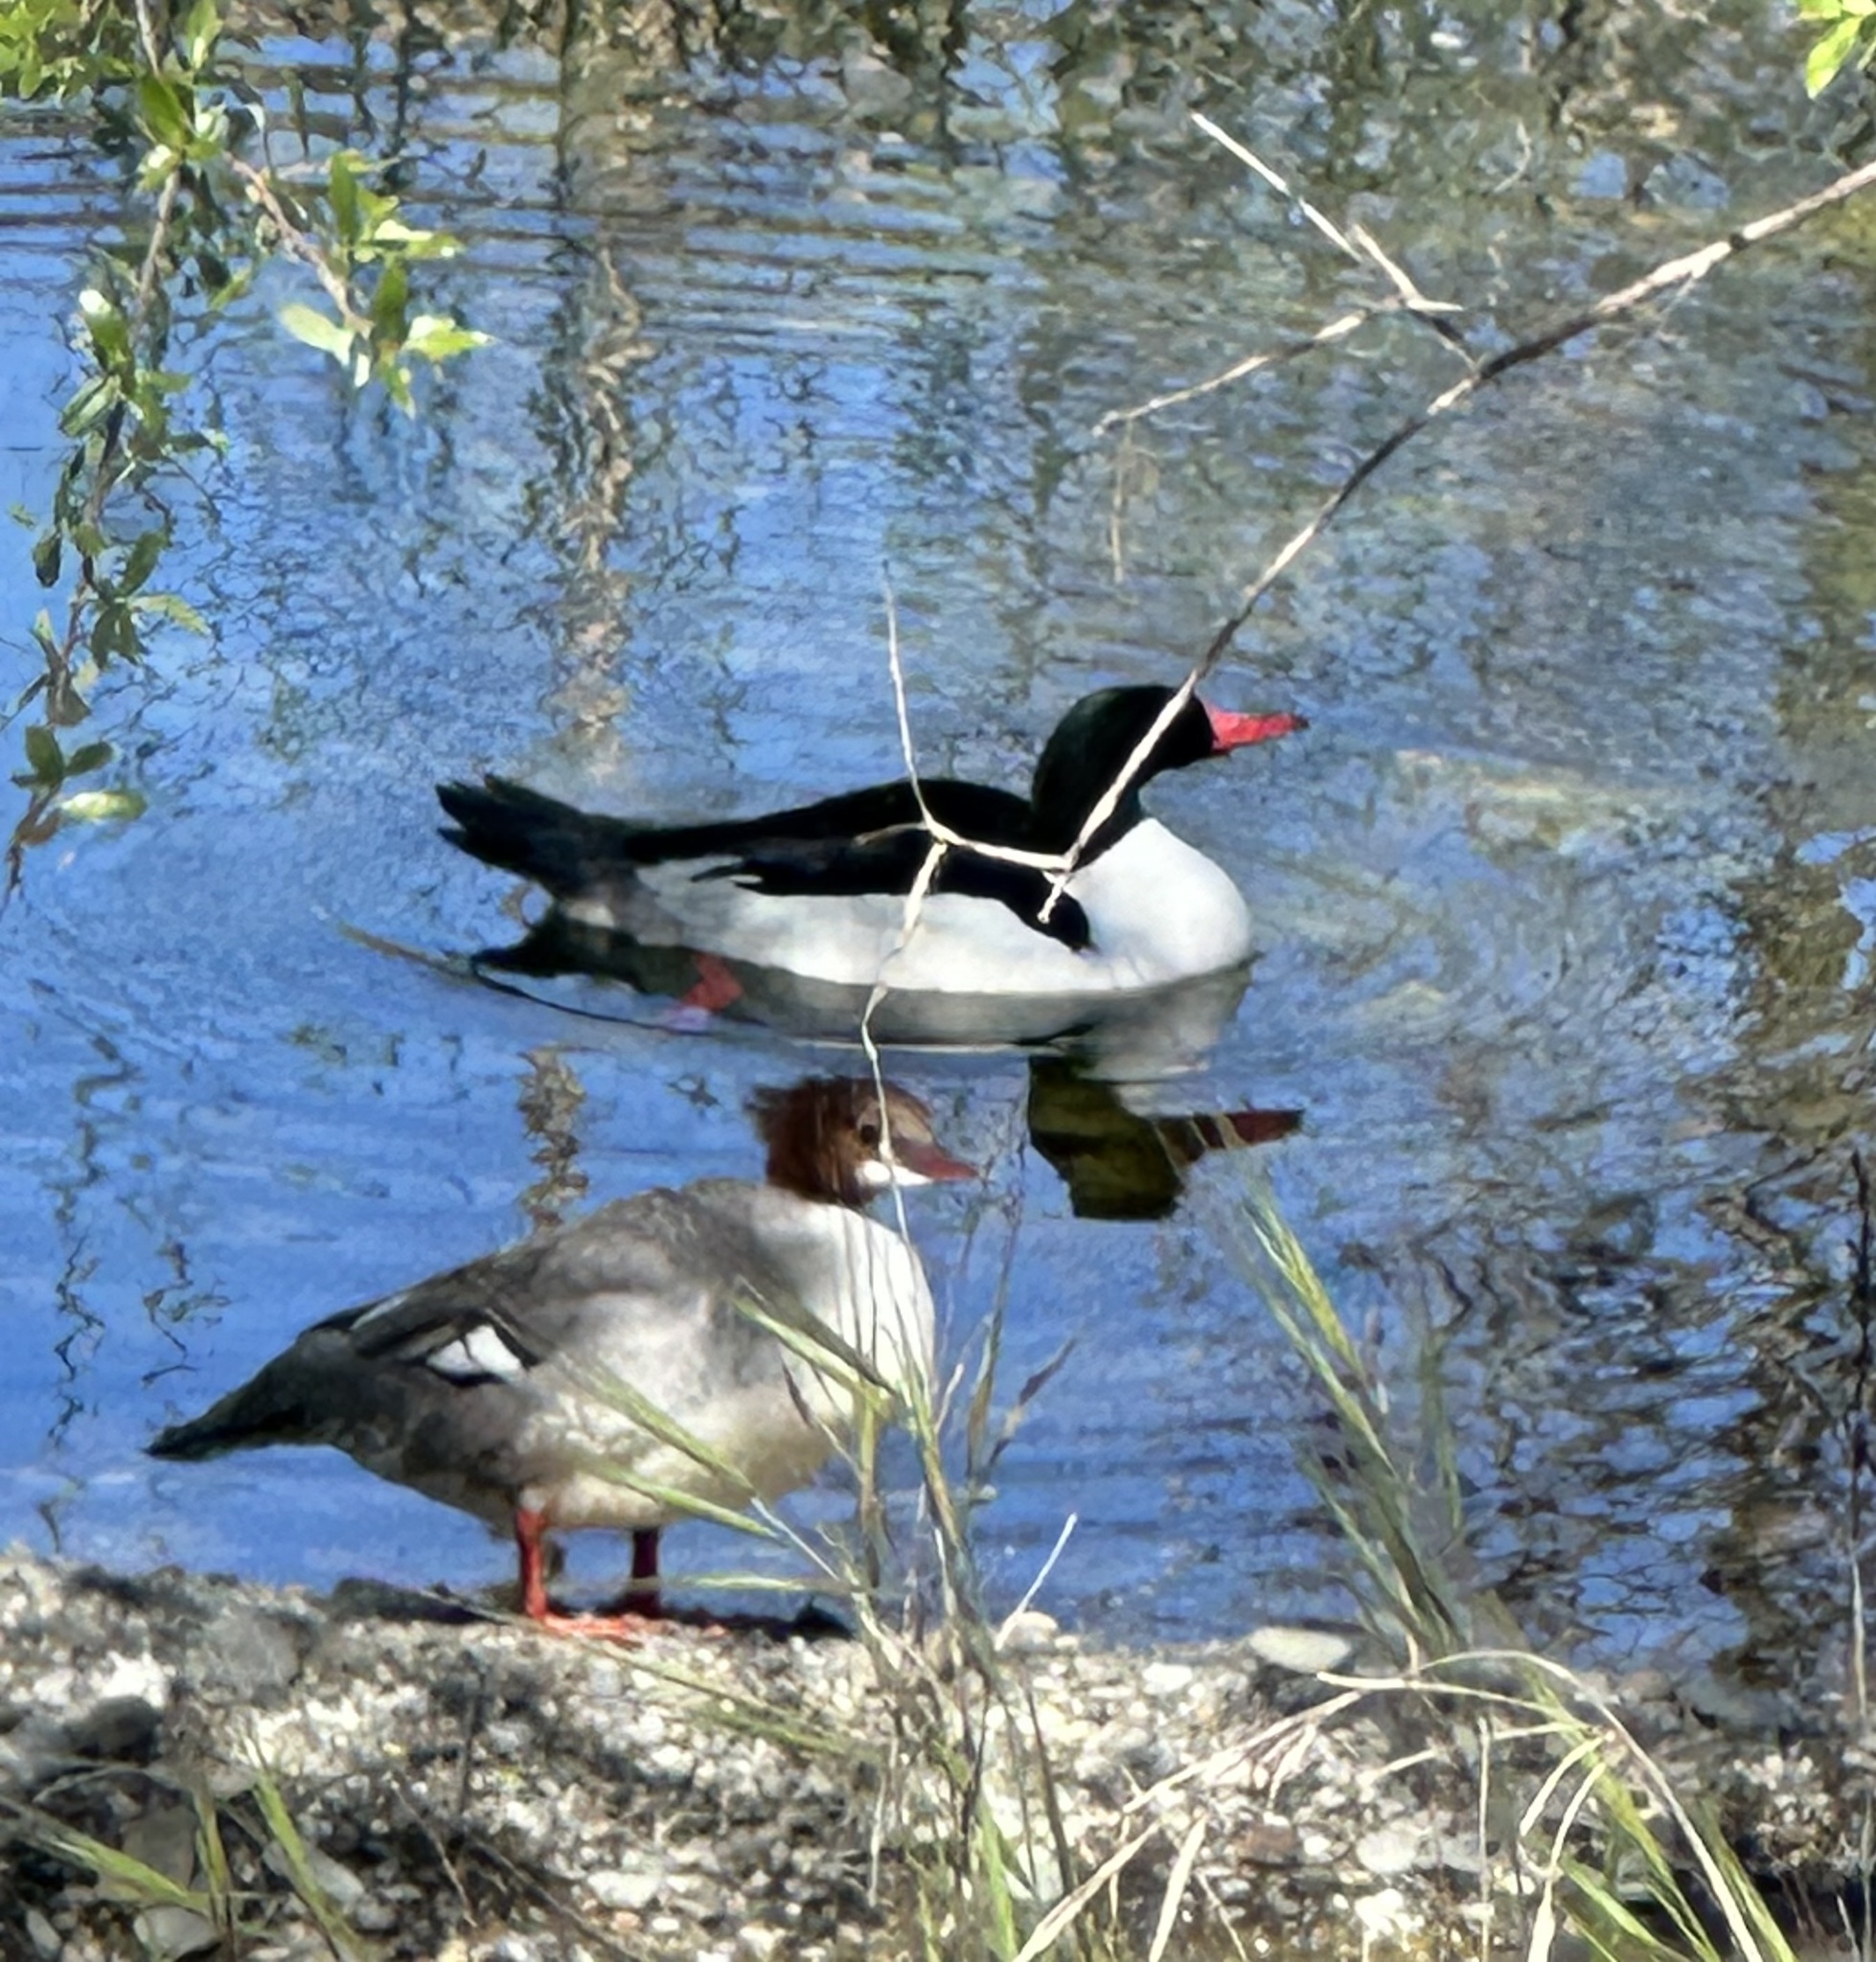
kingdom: Animalia
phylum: Chordata
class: Aves
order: Anseriformes
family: Anatidae
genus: Mergus
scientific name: Mergus merganser
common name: Common merganser
